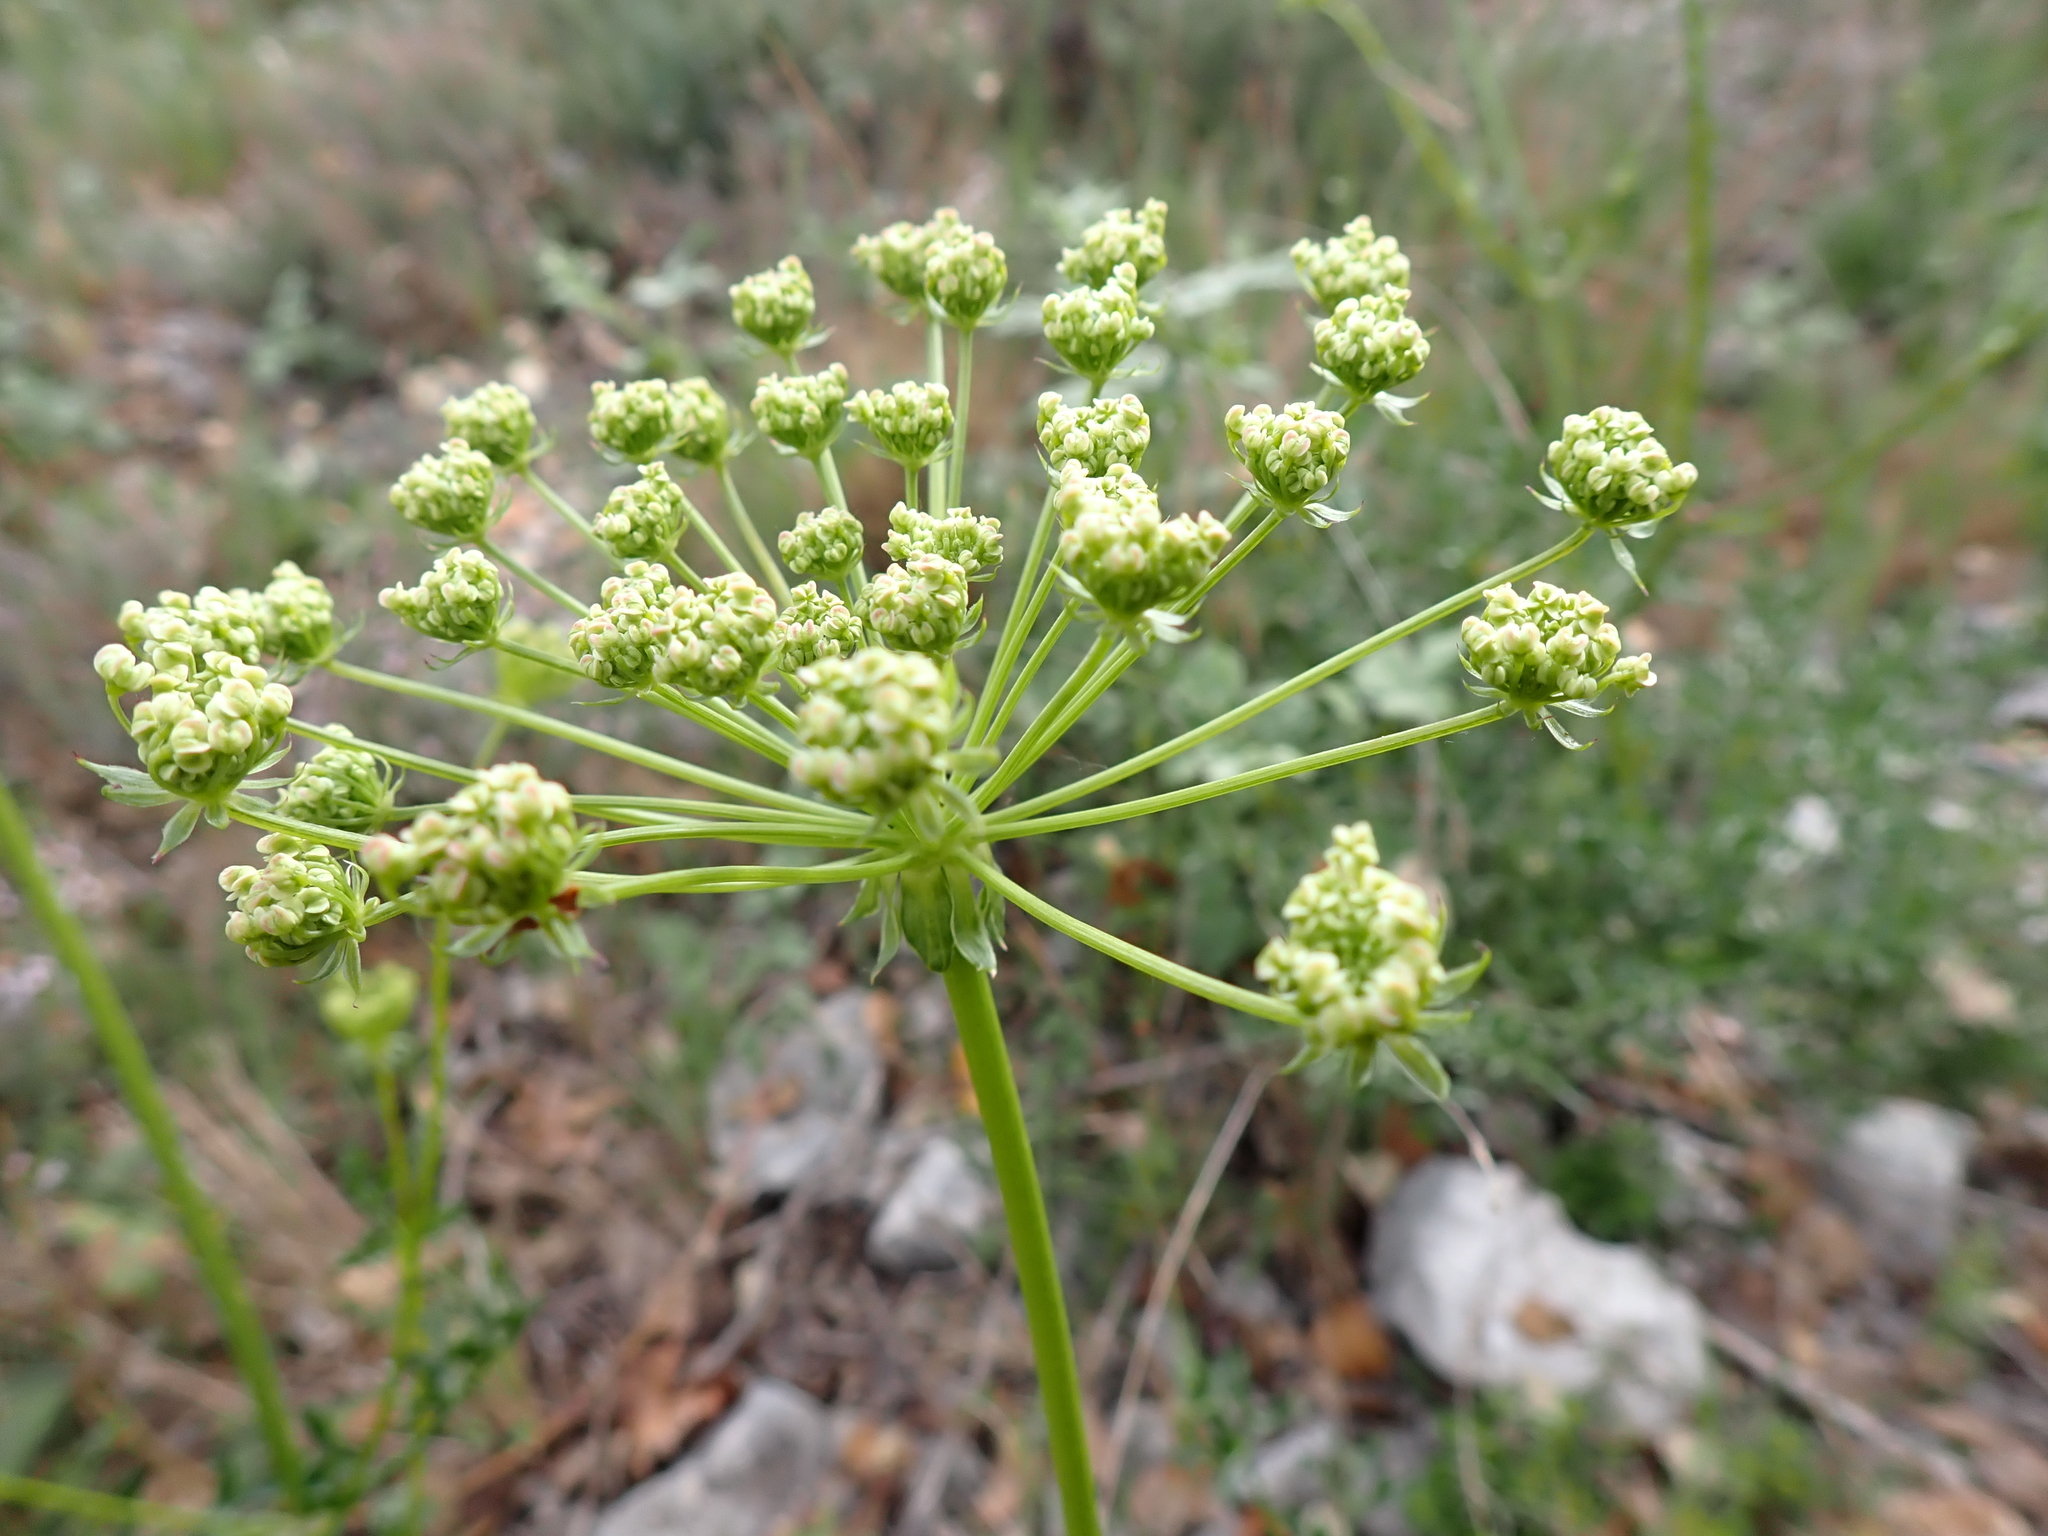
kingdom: Plantae
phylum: Tracheophyta
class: Magnoliopsida
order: Apiales
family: Apiaceae
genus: Laserpitium
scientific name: Laserpitium gallicum
